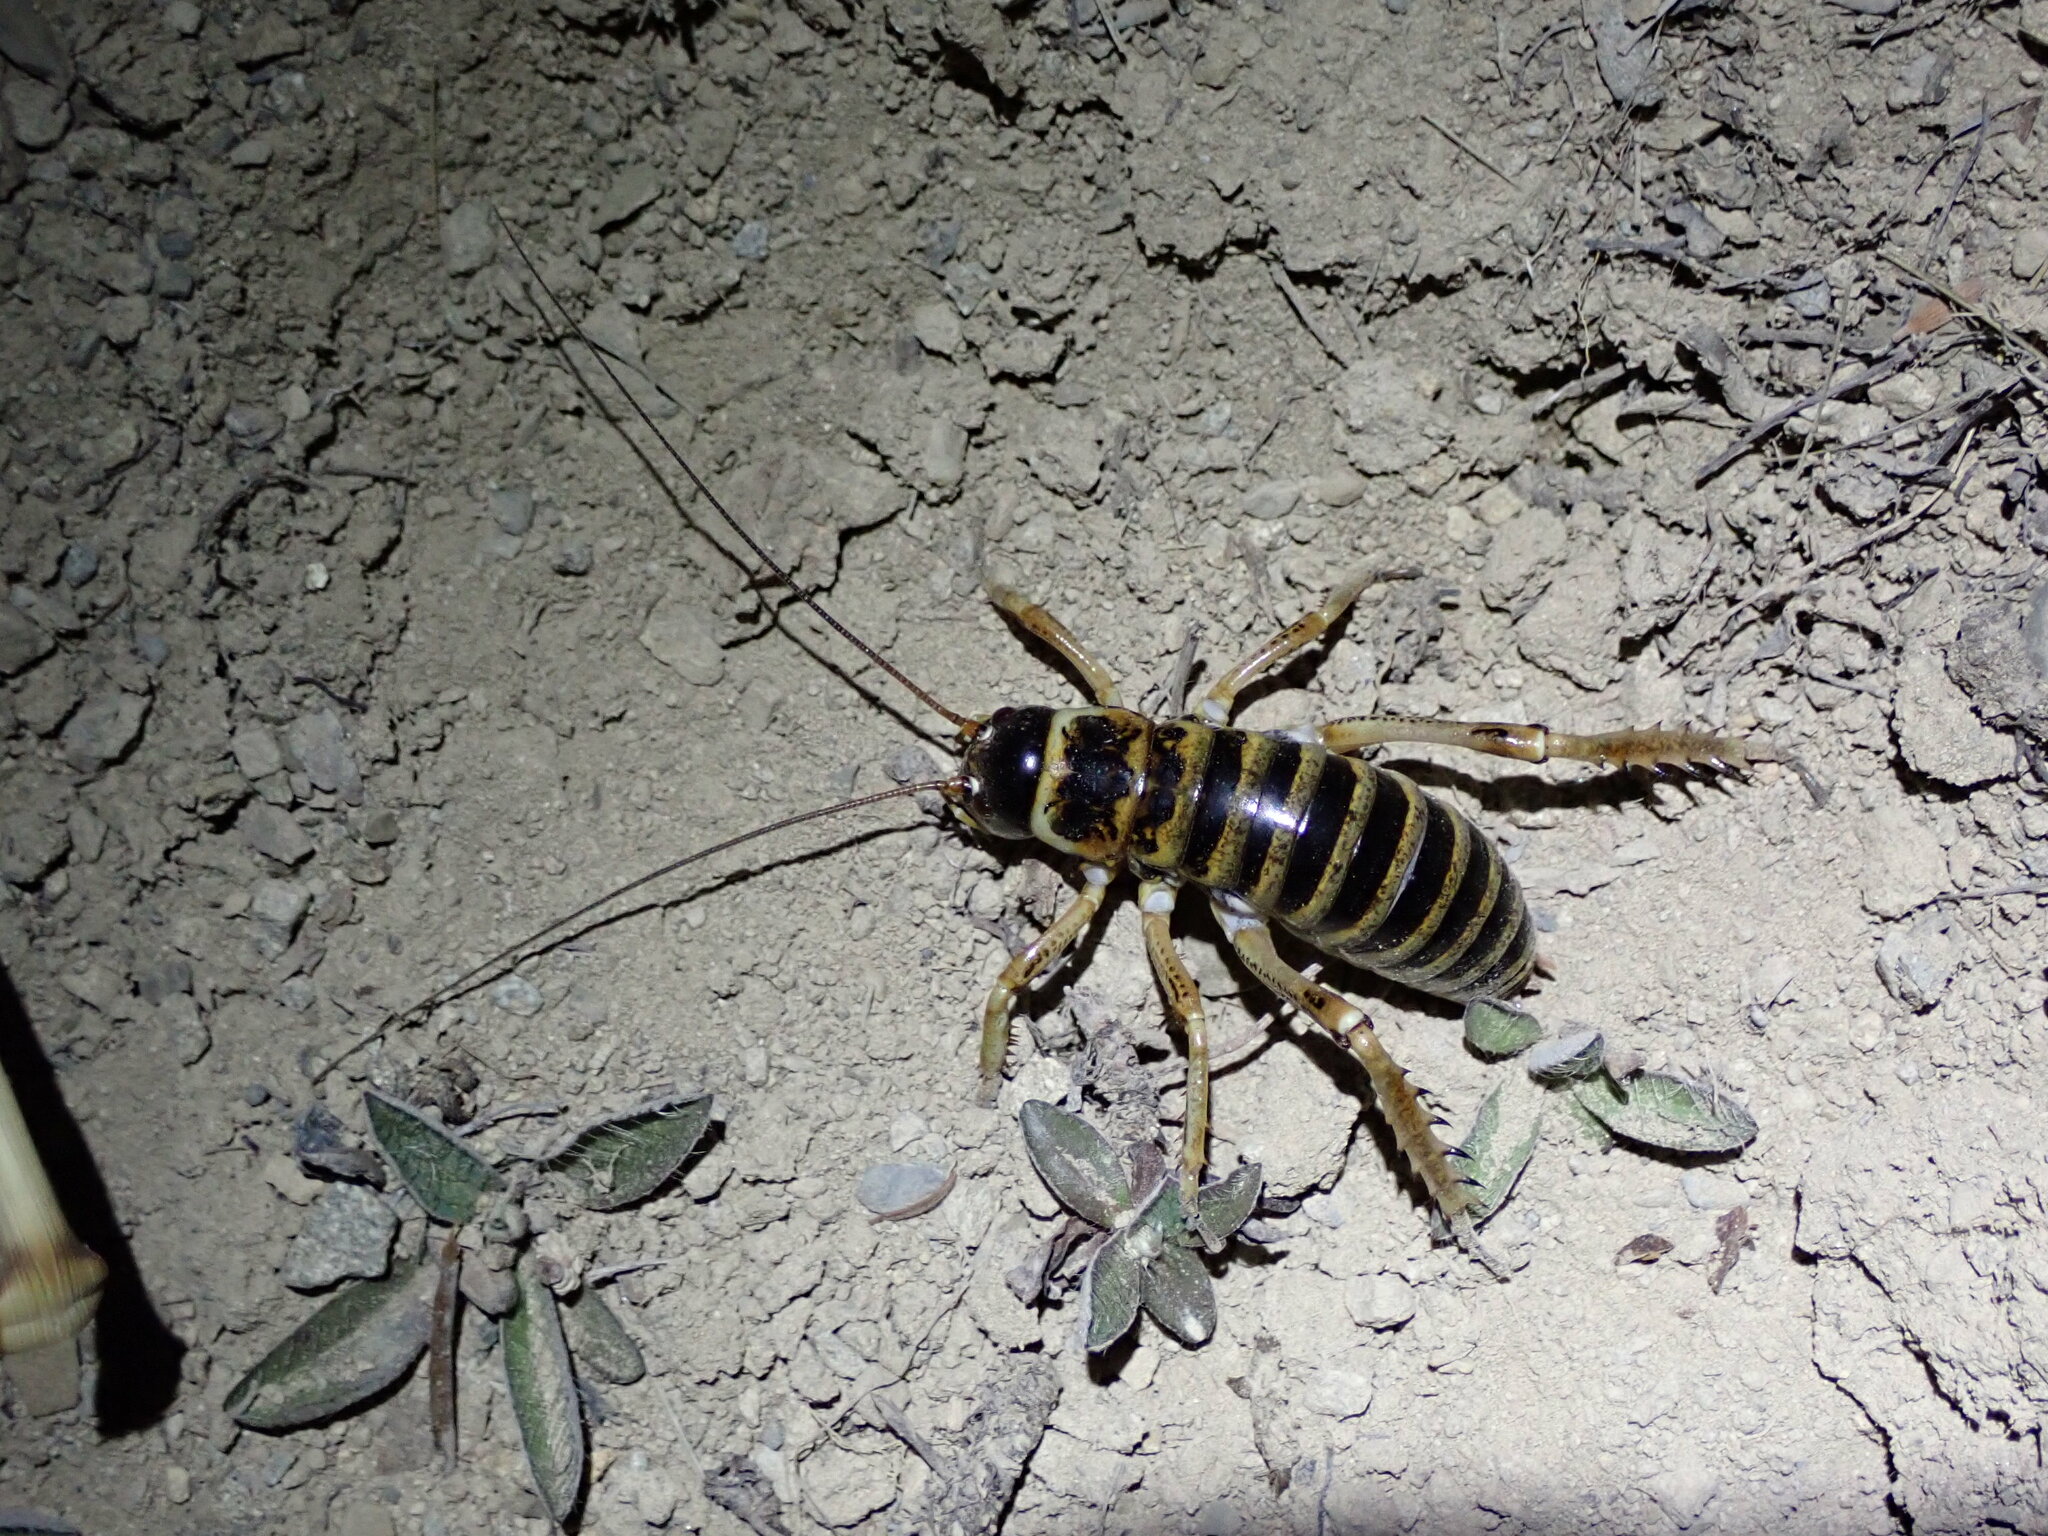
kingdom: Animalia
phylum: Arthropoda
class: Insecta
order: Orthoptera
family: Anostostomatidae
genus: Hemideina
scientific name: Hemideina maori
